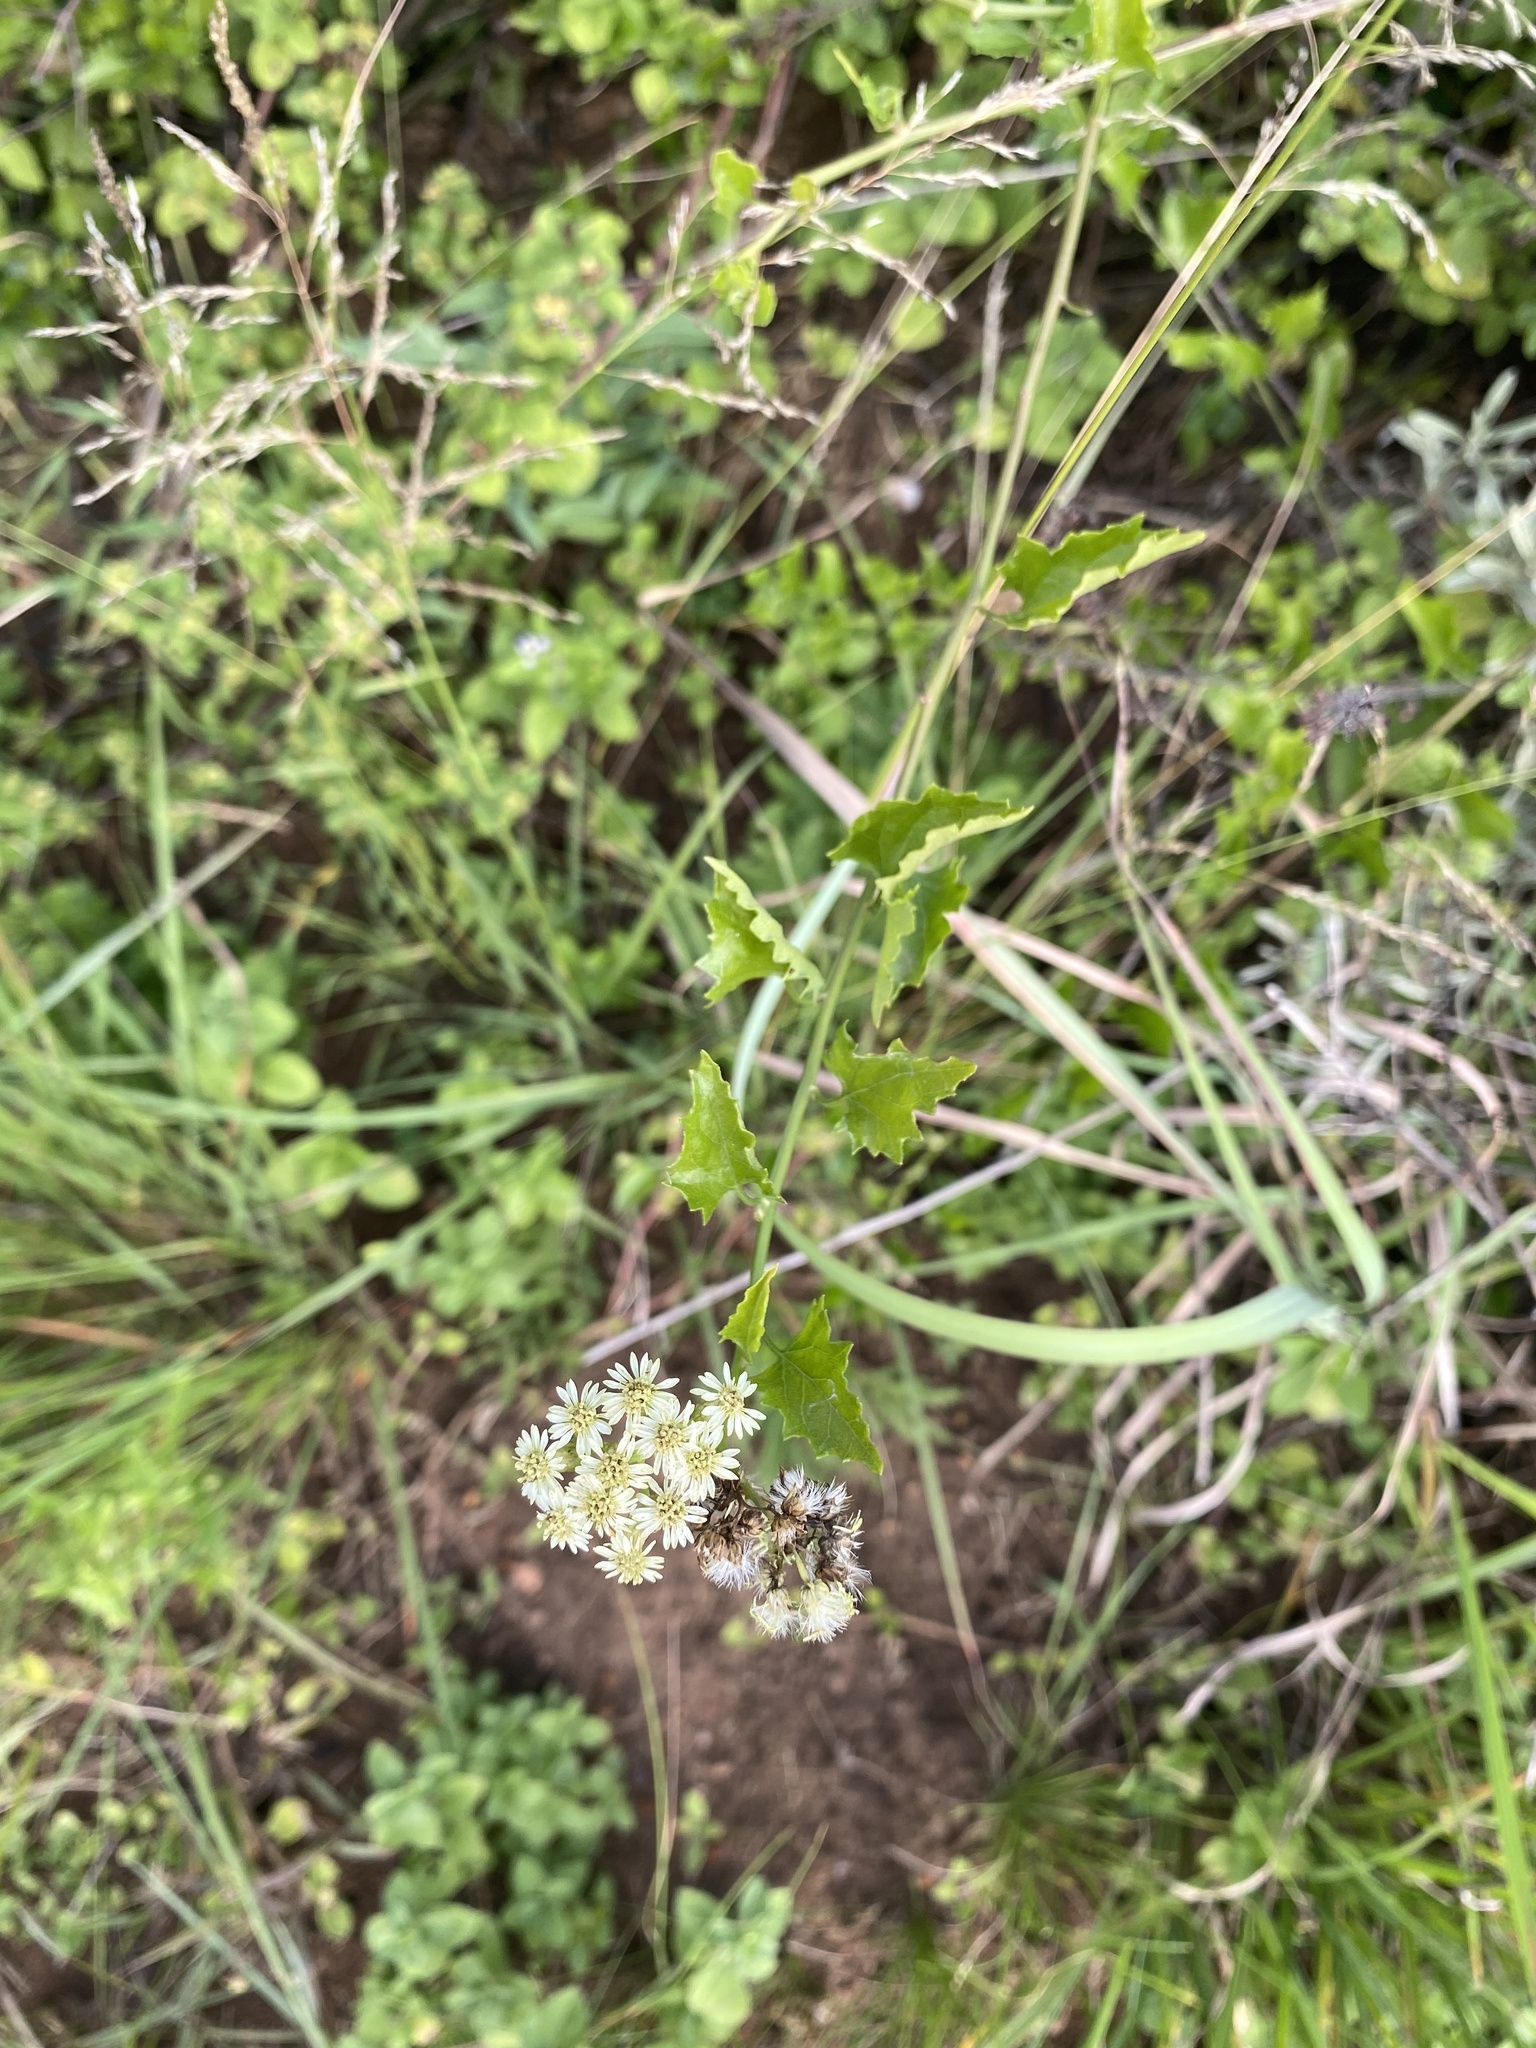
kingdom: Plantae
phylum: Tracheophyta
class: Magnoliopsida
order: Asterales
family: Asteraceae
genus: Microglossa
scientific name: Microglossa mespilifolia
